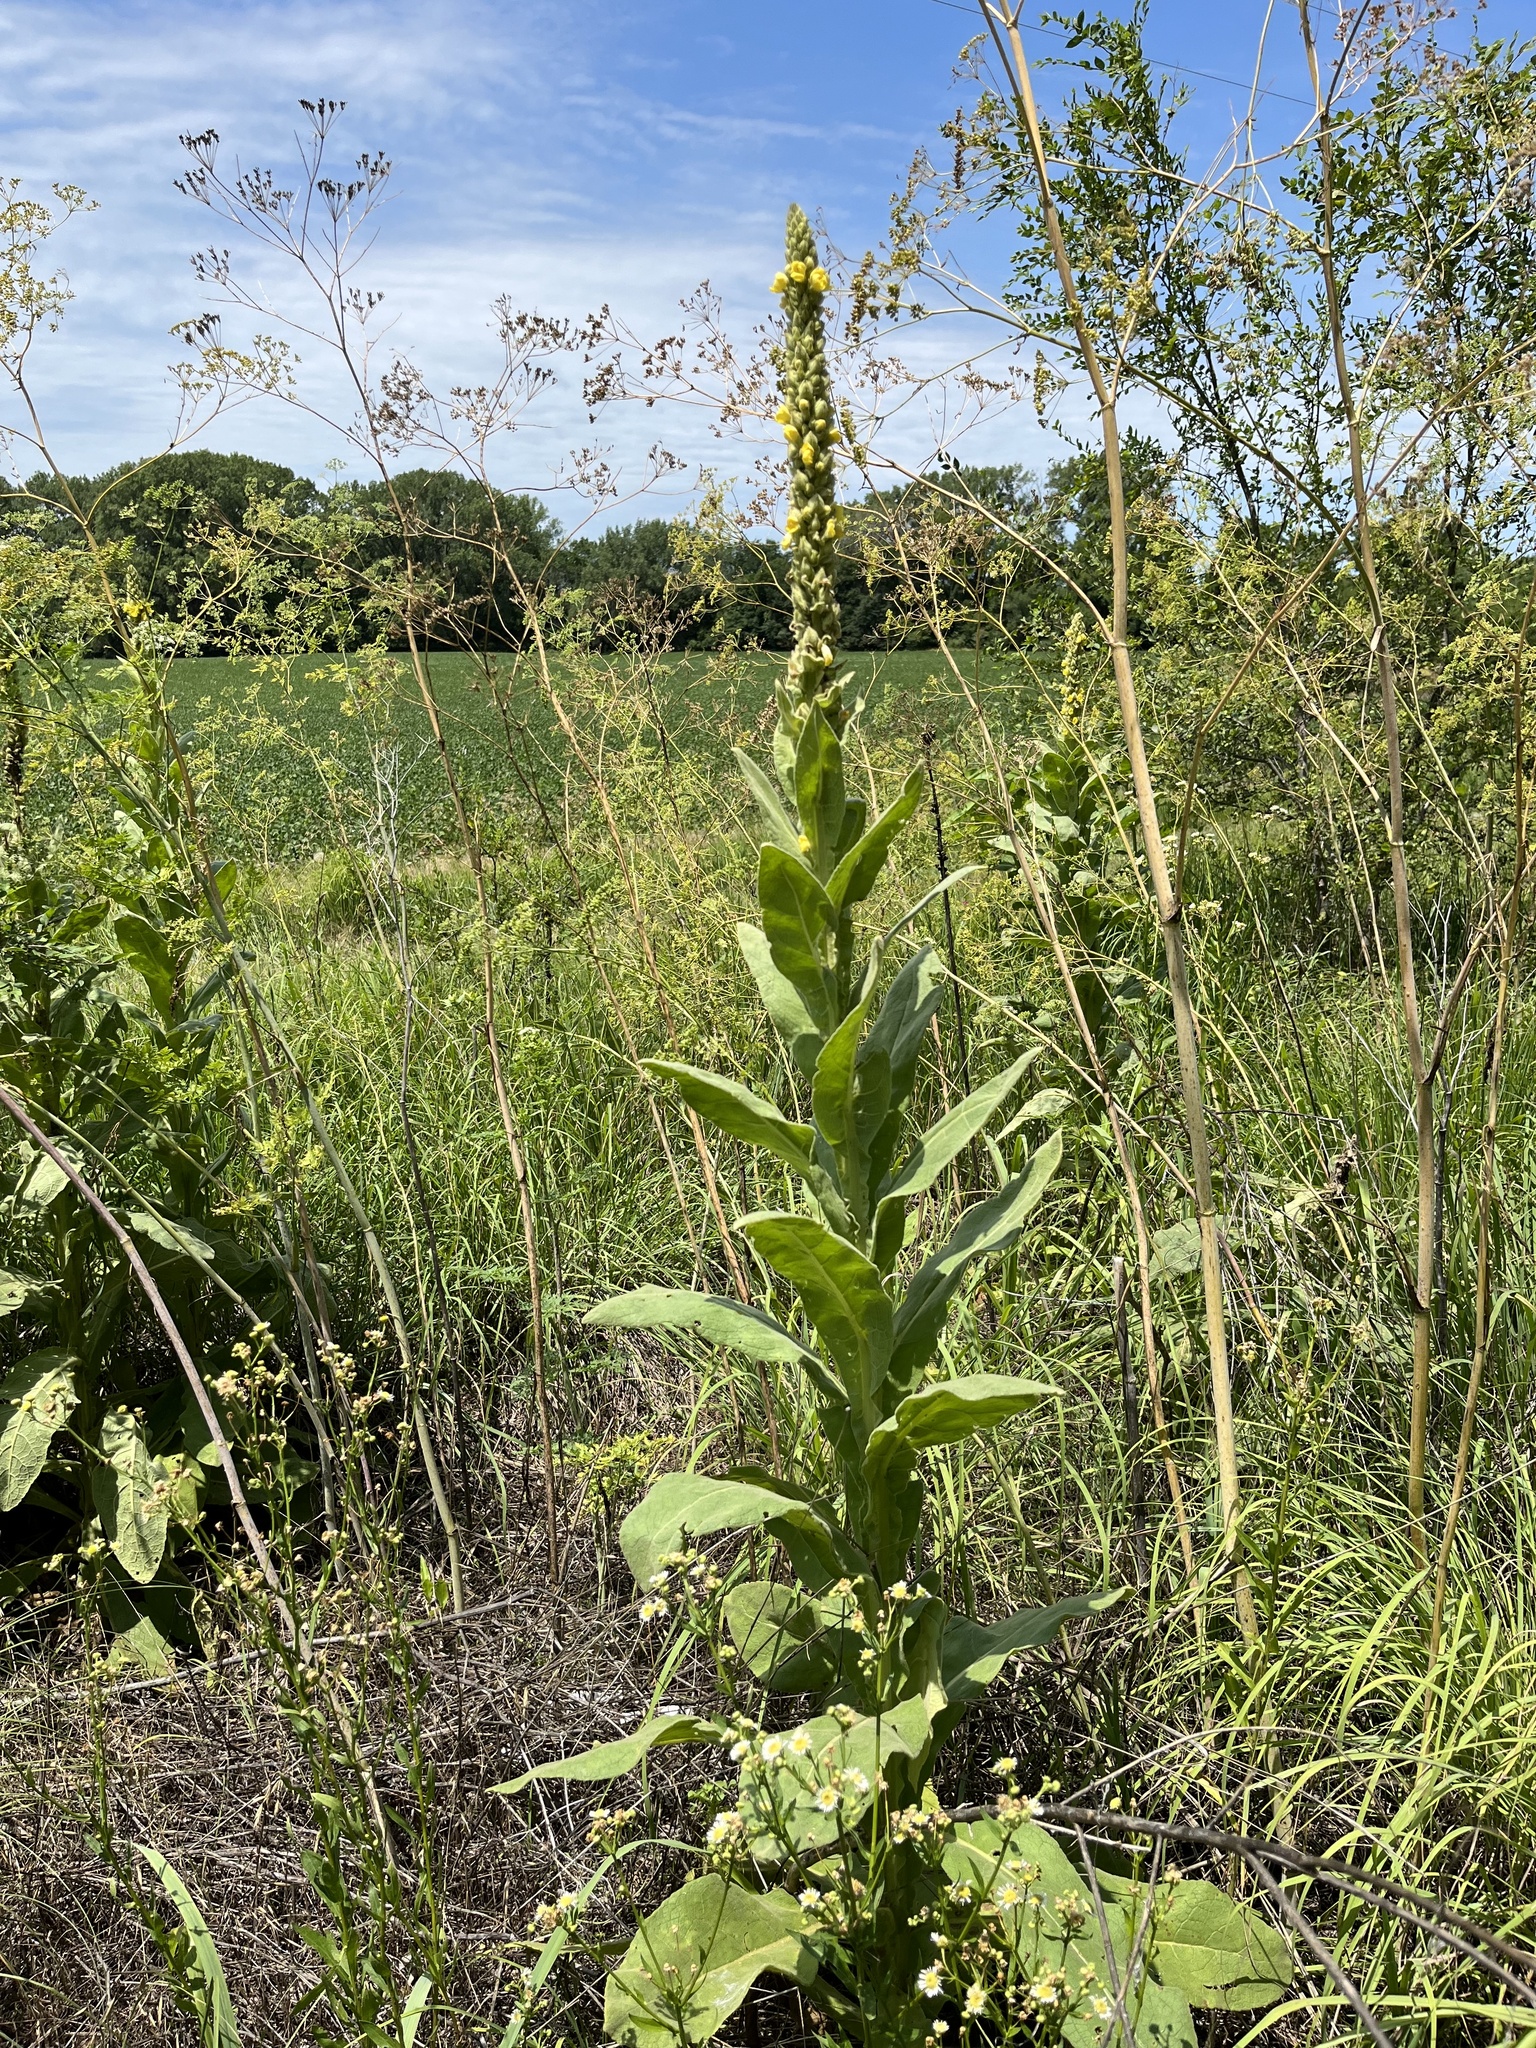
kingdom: Plantae
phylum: Tracheophyta
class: Magnoliopsida
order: Lamiales
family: Scrophulariaceae
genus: Verbascum
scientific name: Verbascum thapsus
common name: Common mullein
